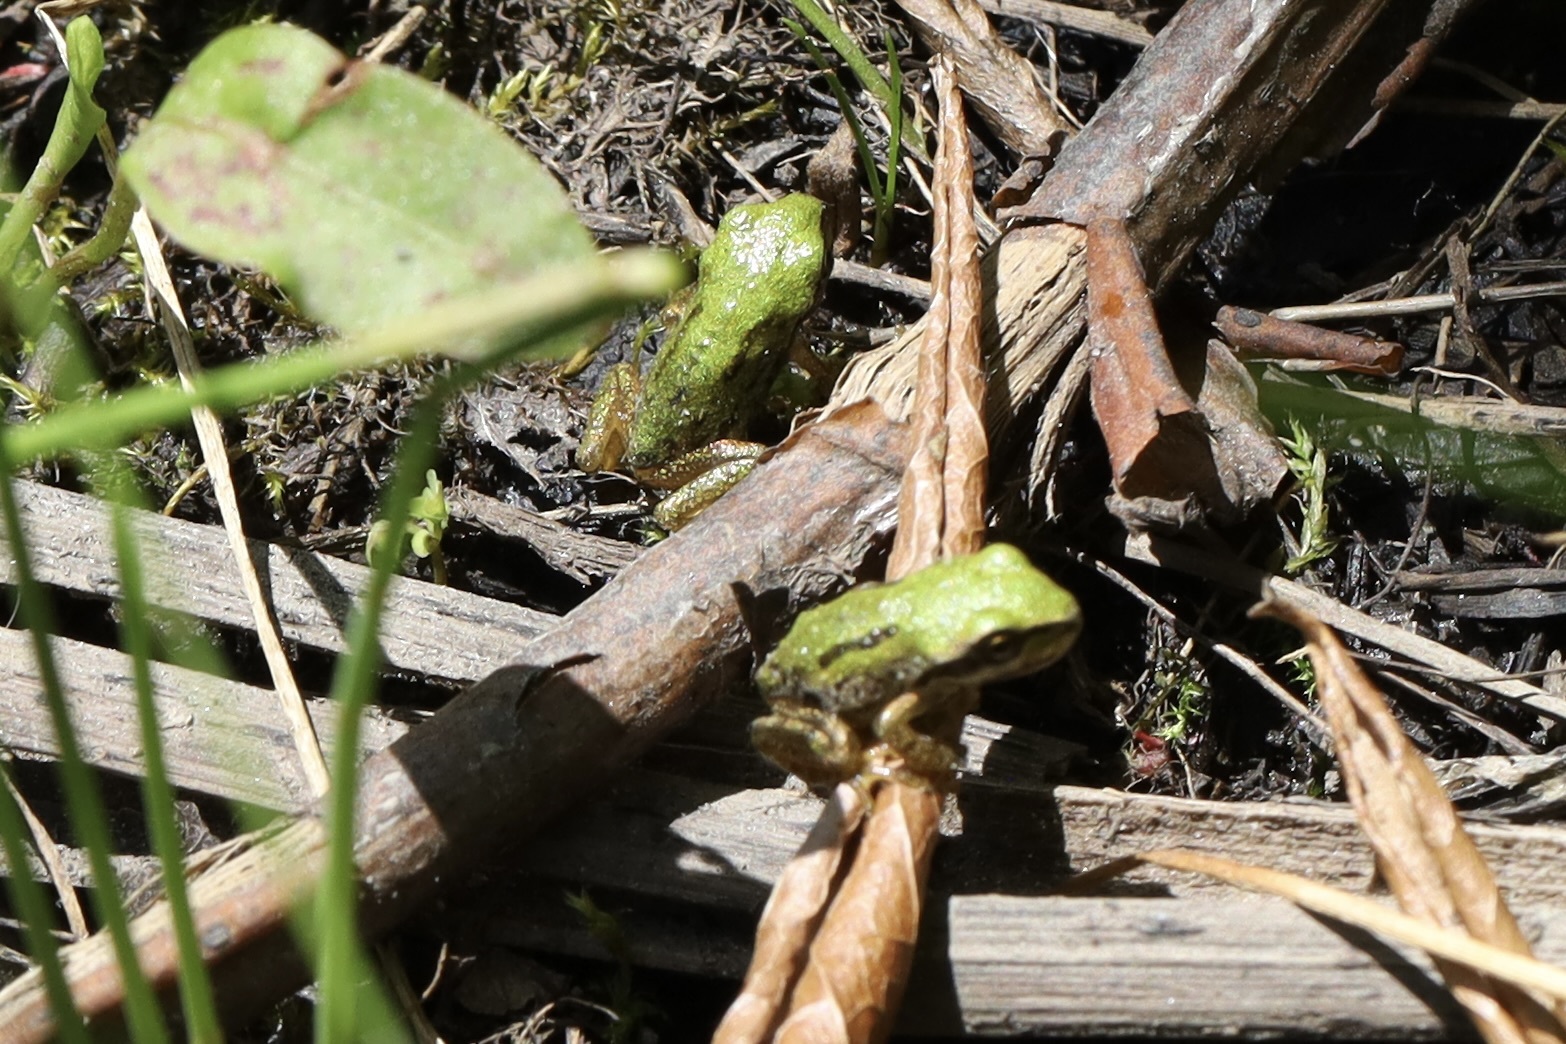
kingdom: Animalia
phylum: Chordata
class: Amphibia
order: Anura
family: Hylidae
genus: Pseudacris
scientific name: Pseudacris regilla
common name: Pacific chorus frog
